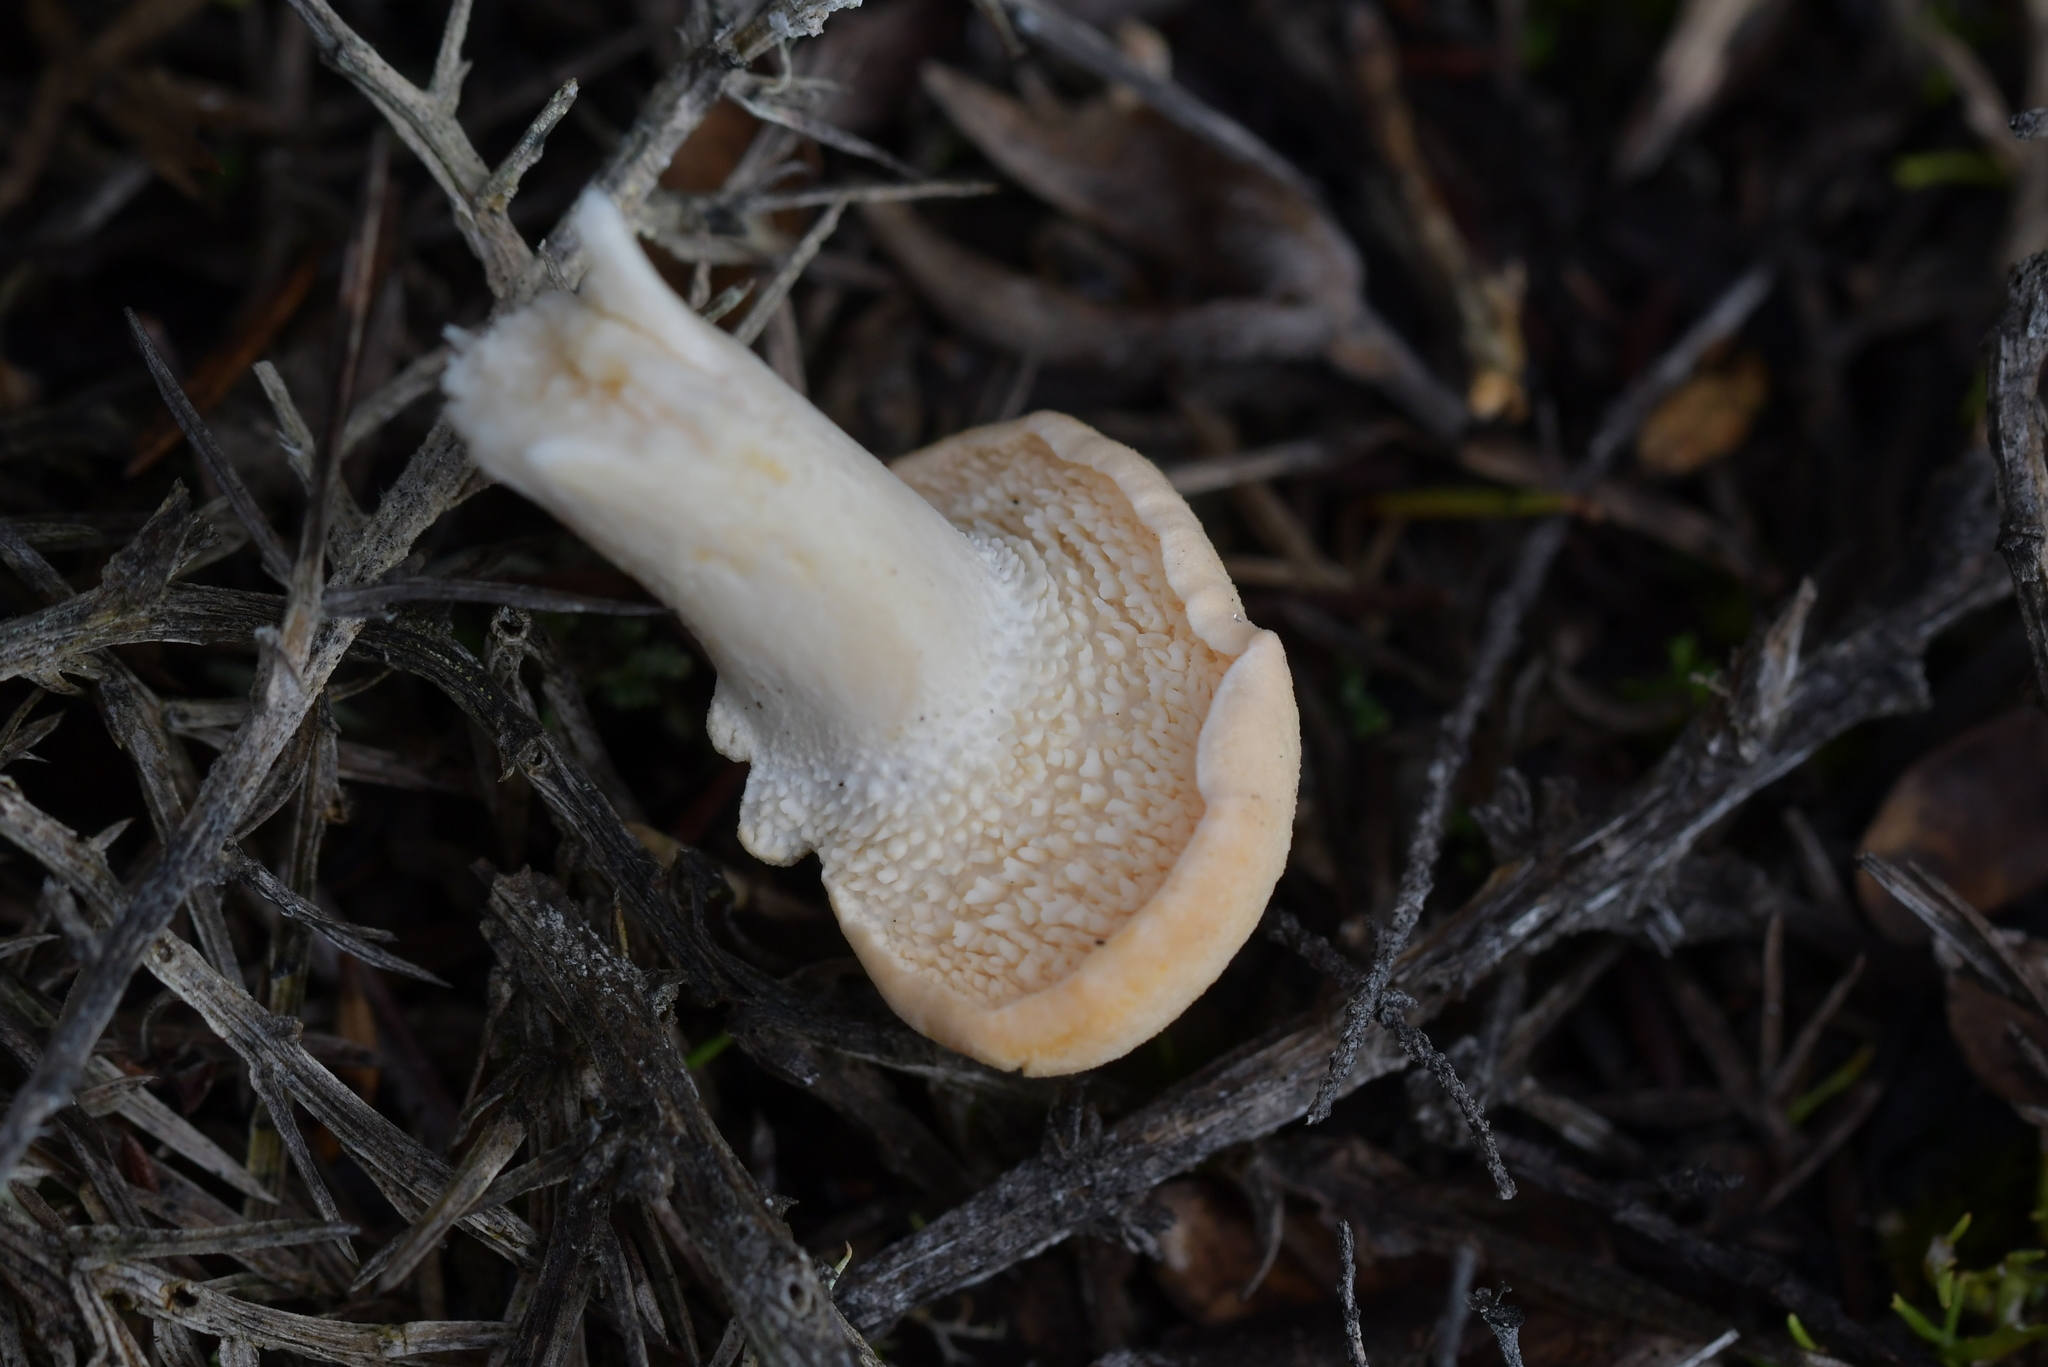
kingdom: Fungi
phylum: Basidiomycota
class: Agaricomycetes
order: Cantharellales
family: Hydnaceae
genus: Hydnum
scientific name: Hydnum ambustum
